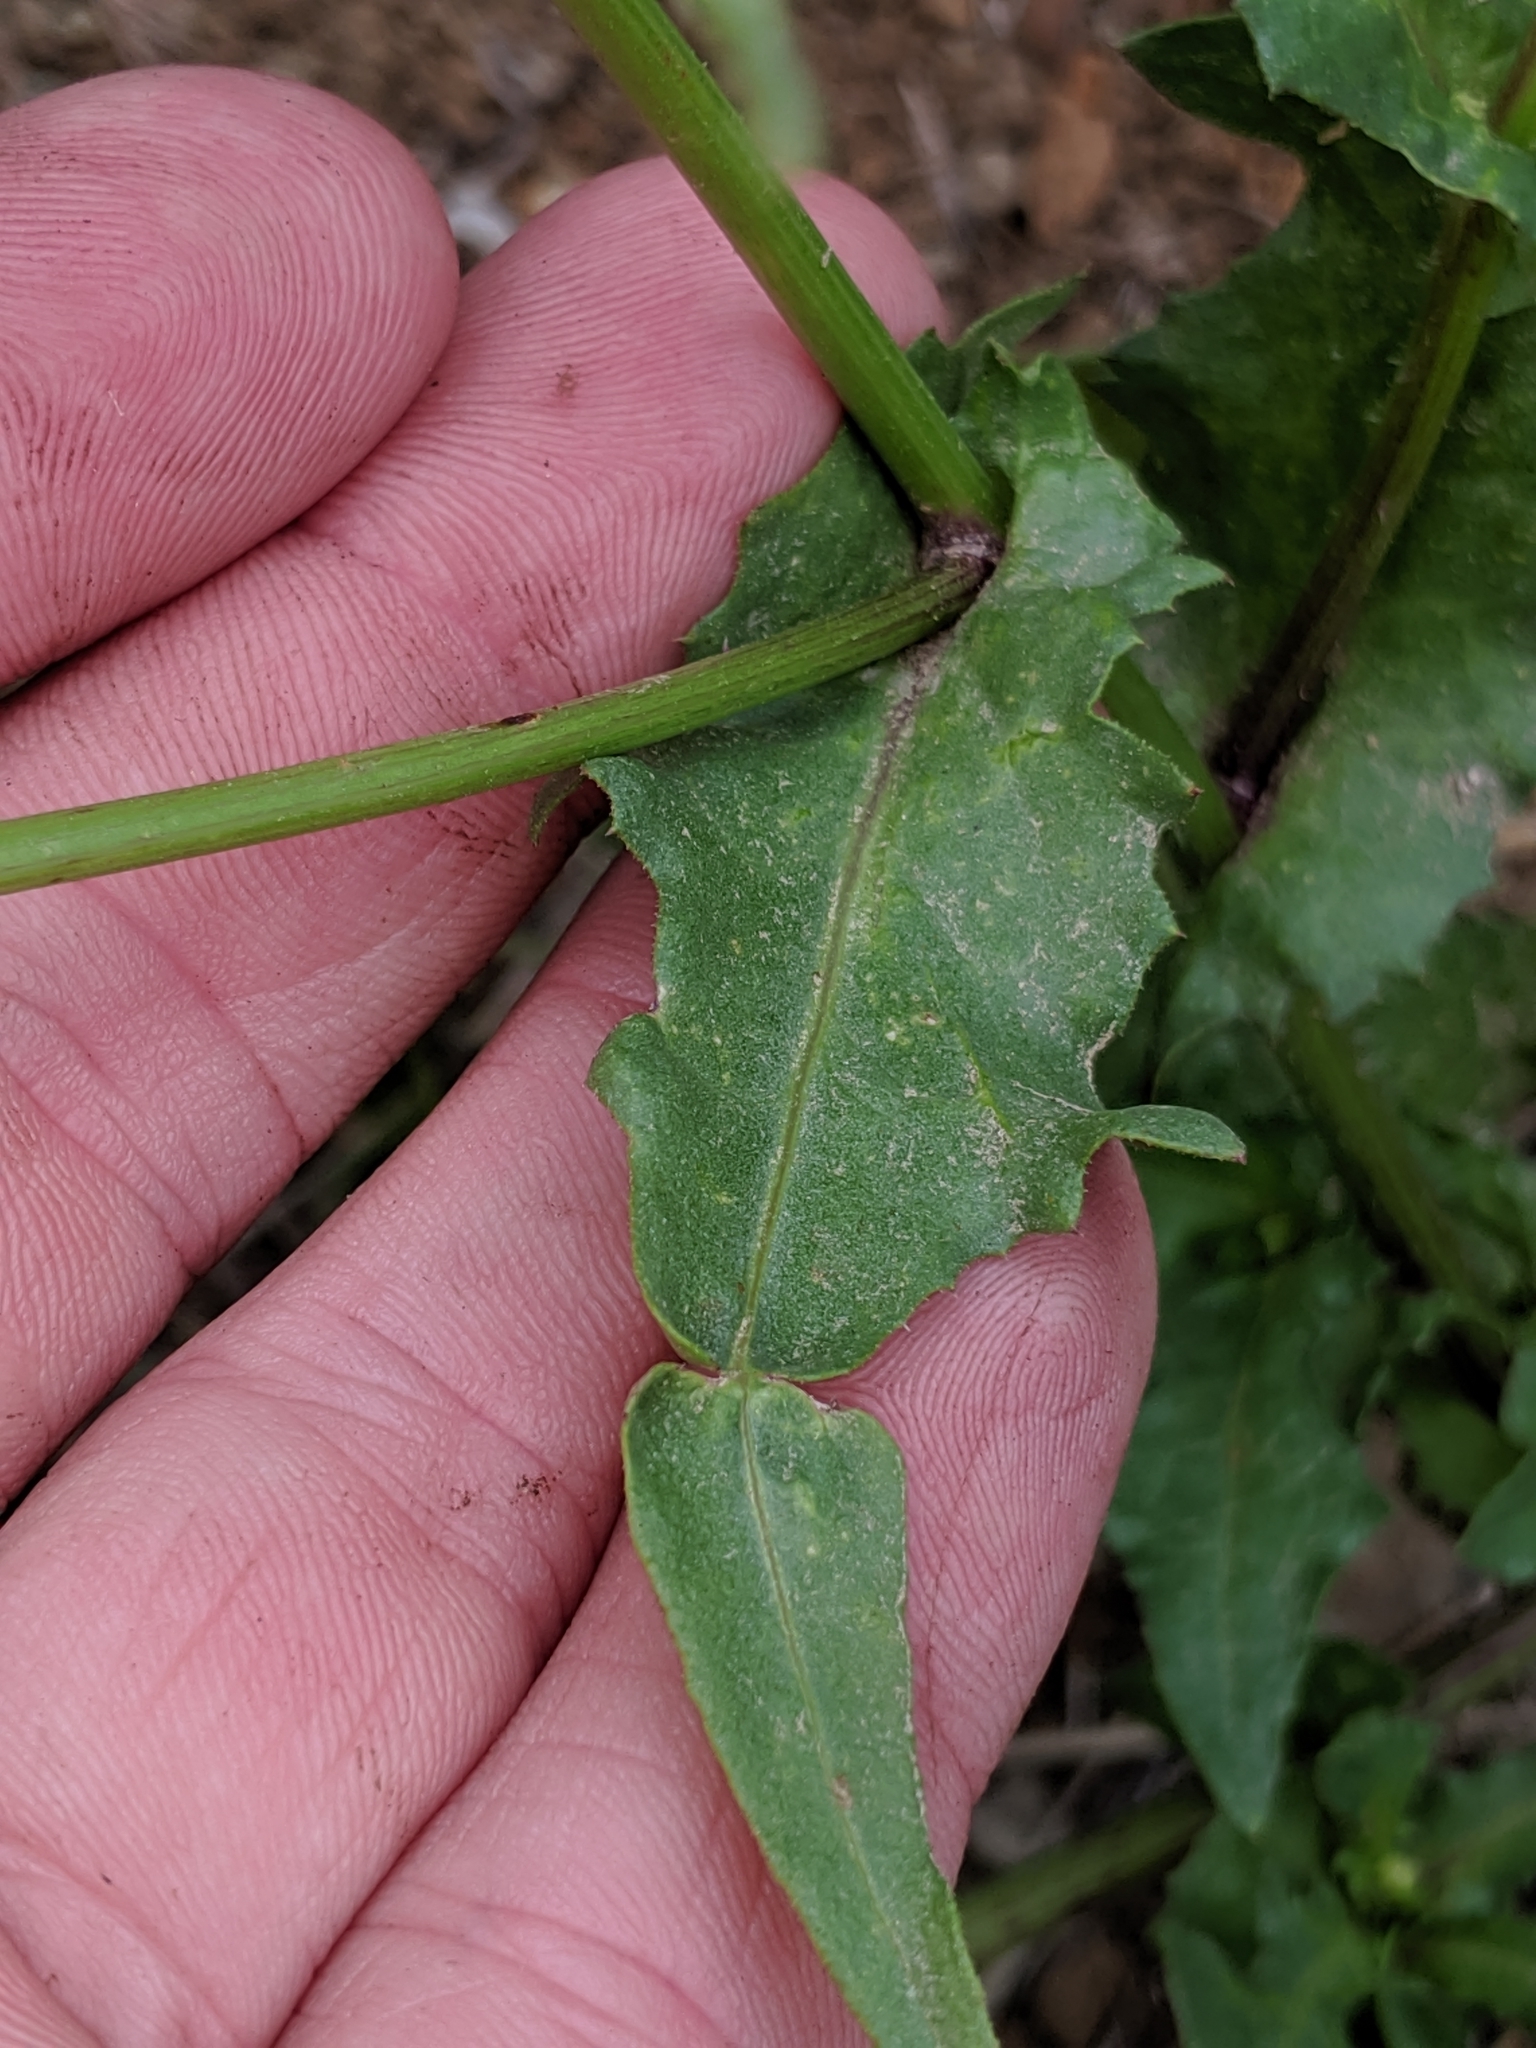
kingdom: Plantae
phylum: Tracheophyta
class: Magnoliopsida
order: Asterales
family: Asteraceae
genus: Urospermum
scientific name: Urospermum picroides
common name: False hawkbit
